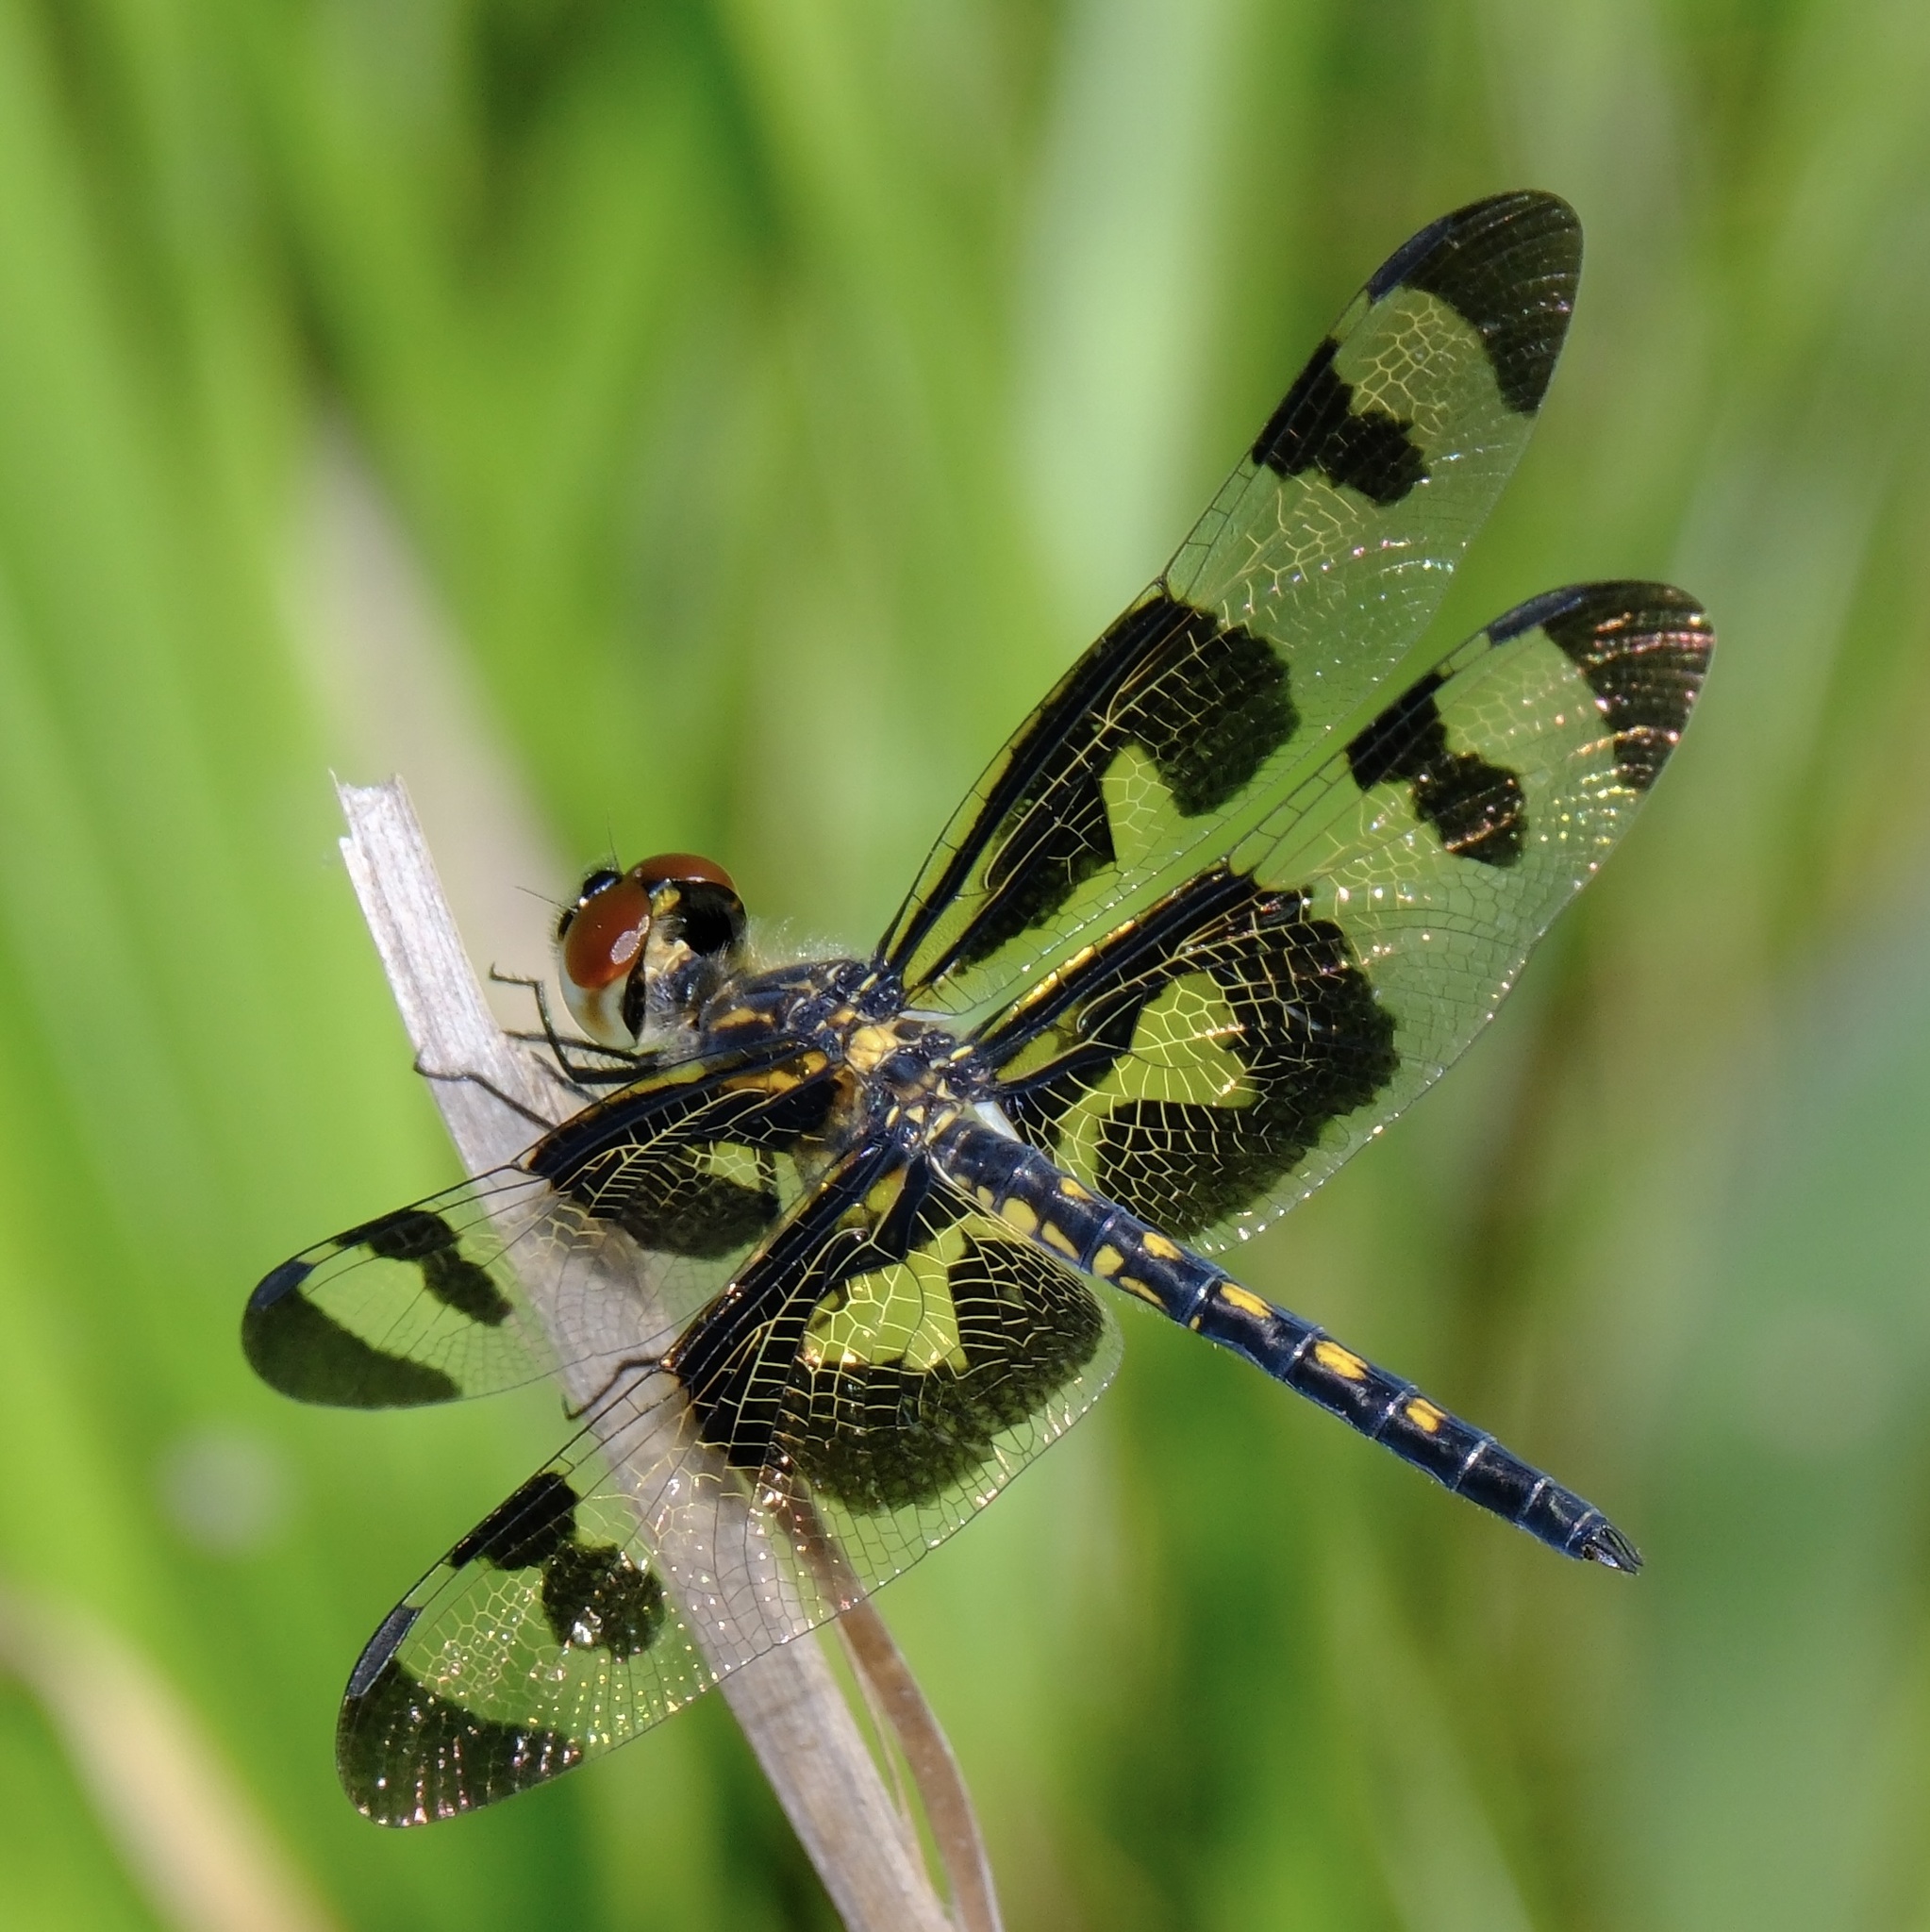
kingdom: Animalia
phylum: Arthropoda
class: Insecta
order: Odonata
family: Libellulidae
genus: Celithemis
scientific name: Celithemis fasciata
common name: Banded pennant
